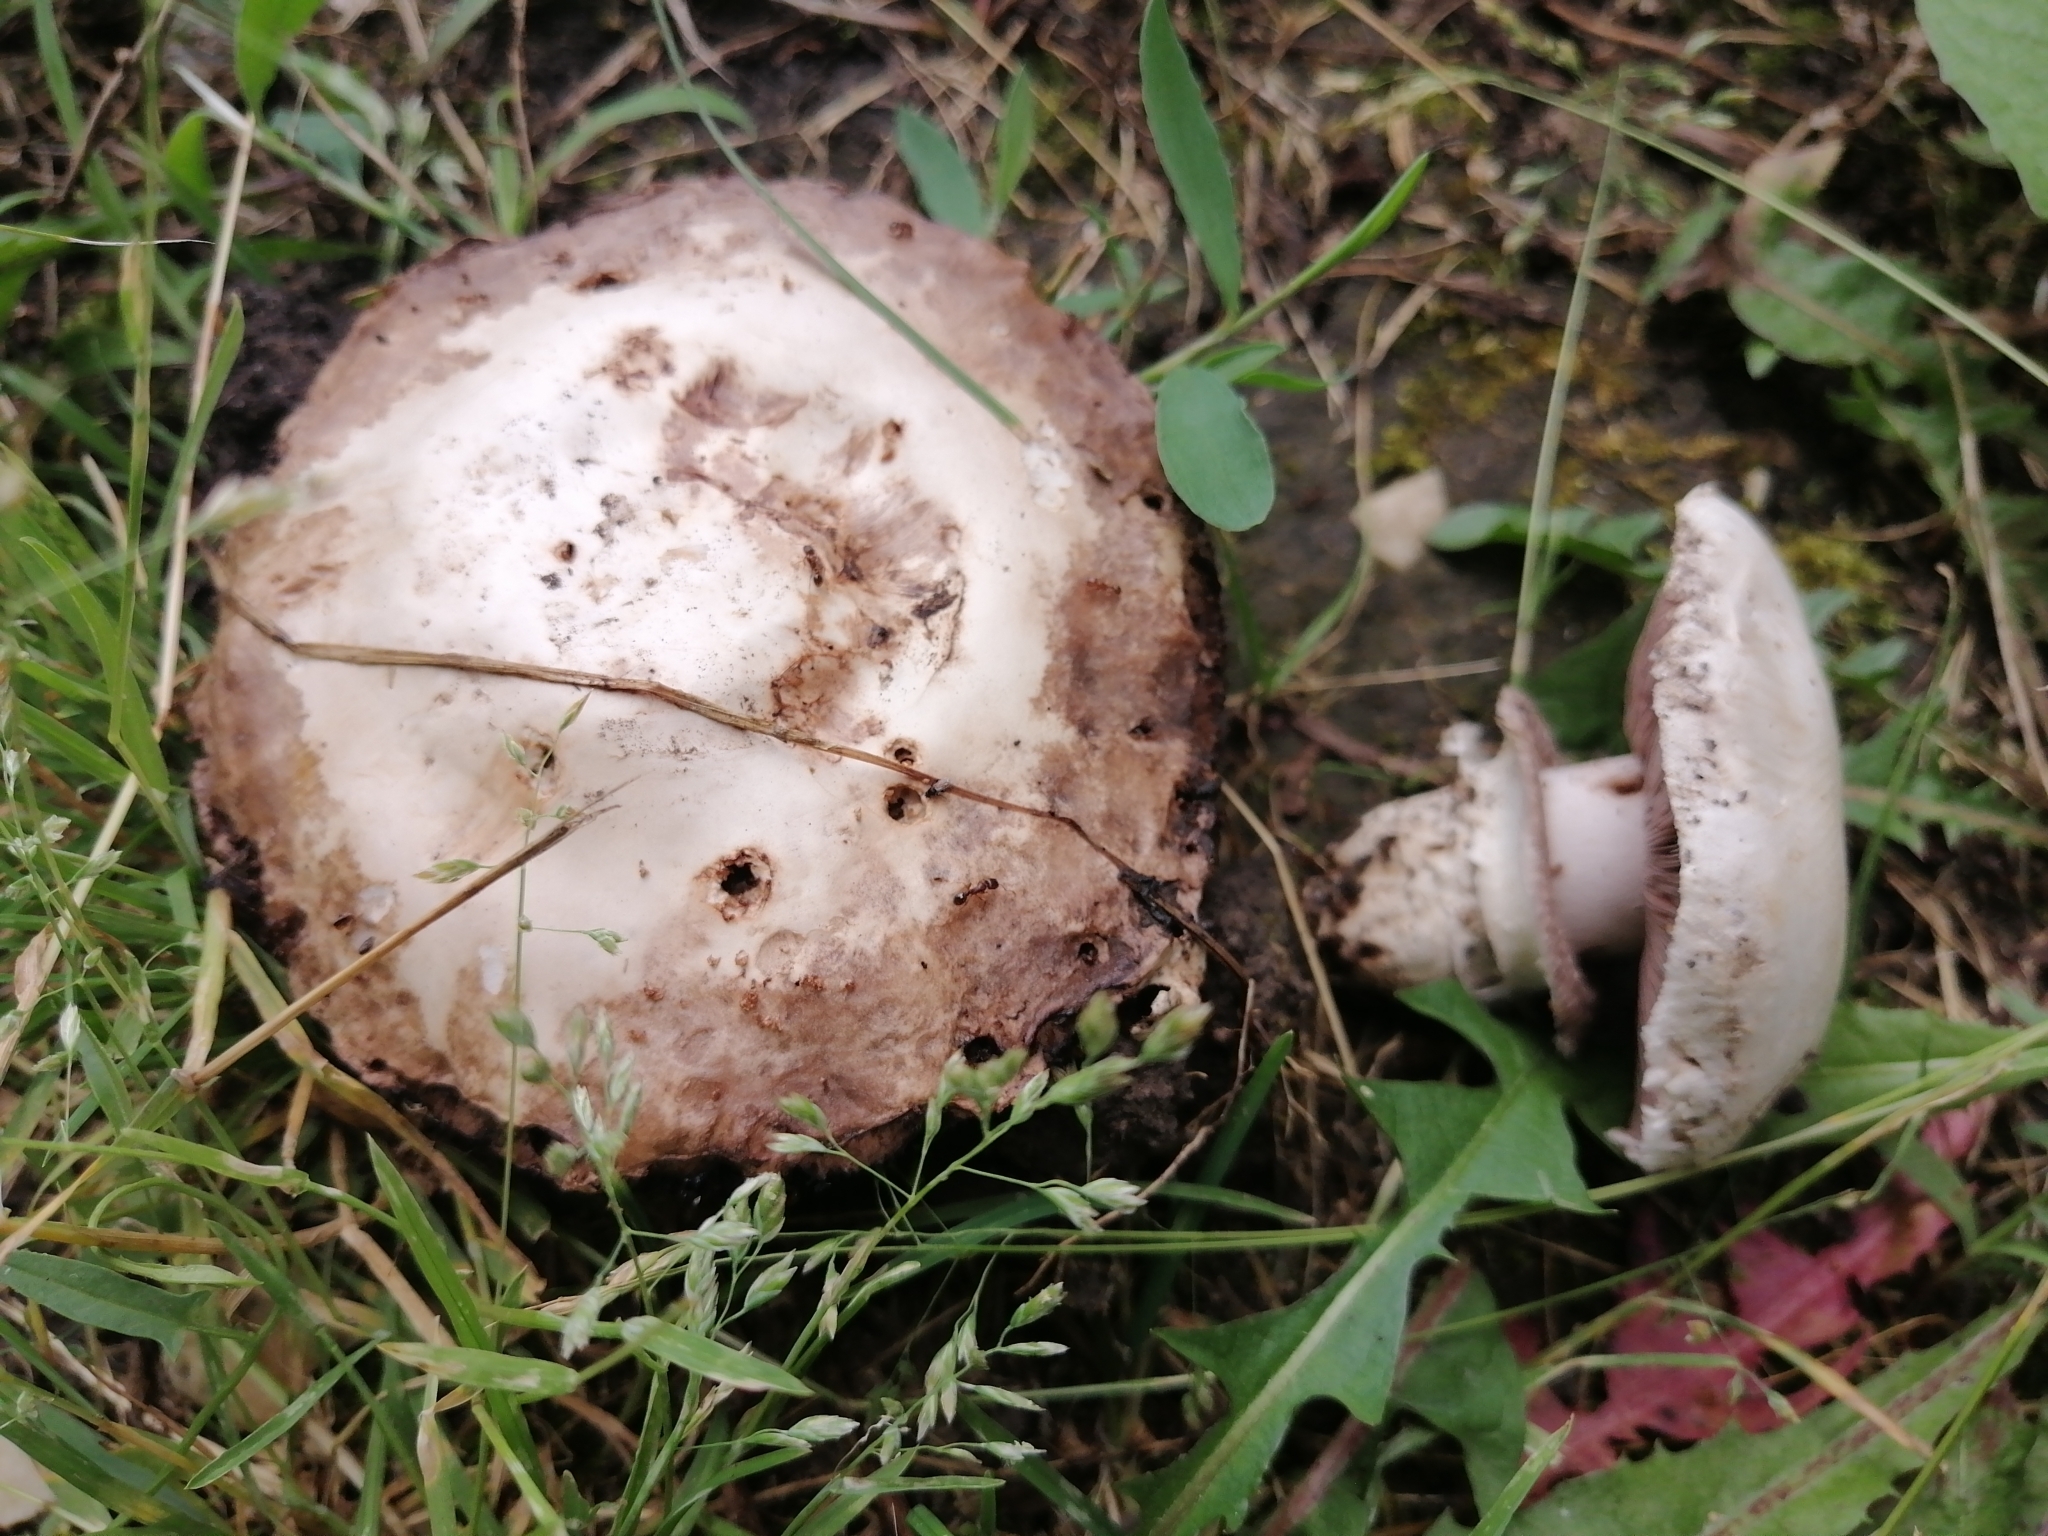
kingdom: Fungi
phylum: Basidiomycota
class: Agaricomycetes
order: Agaricales
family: Agaricaceae
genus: Agaricus
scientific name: Agaricus bitorquis
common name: Pavement mushroom
